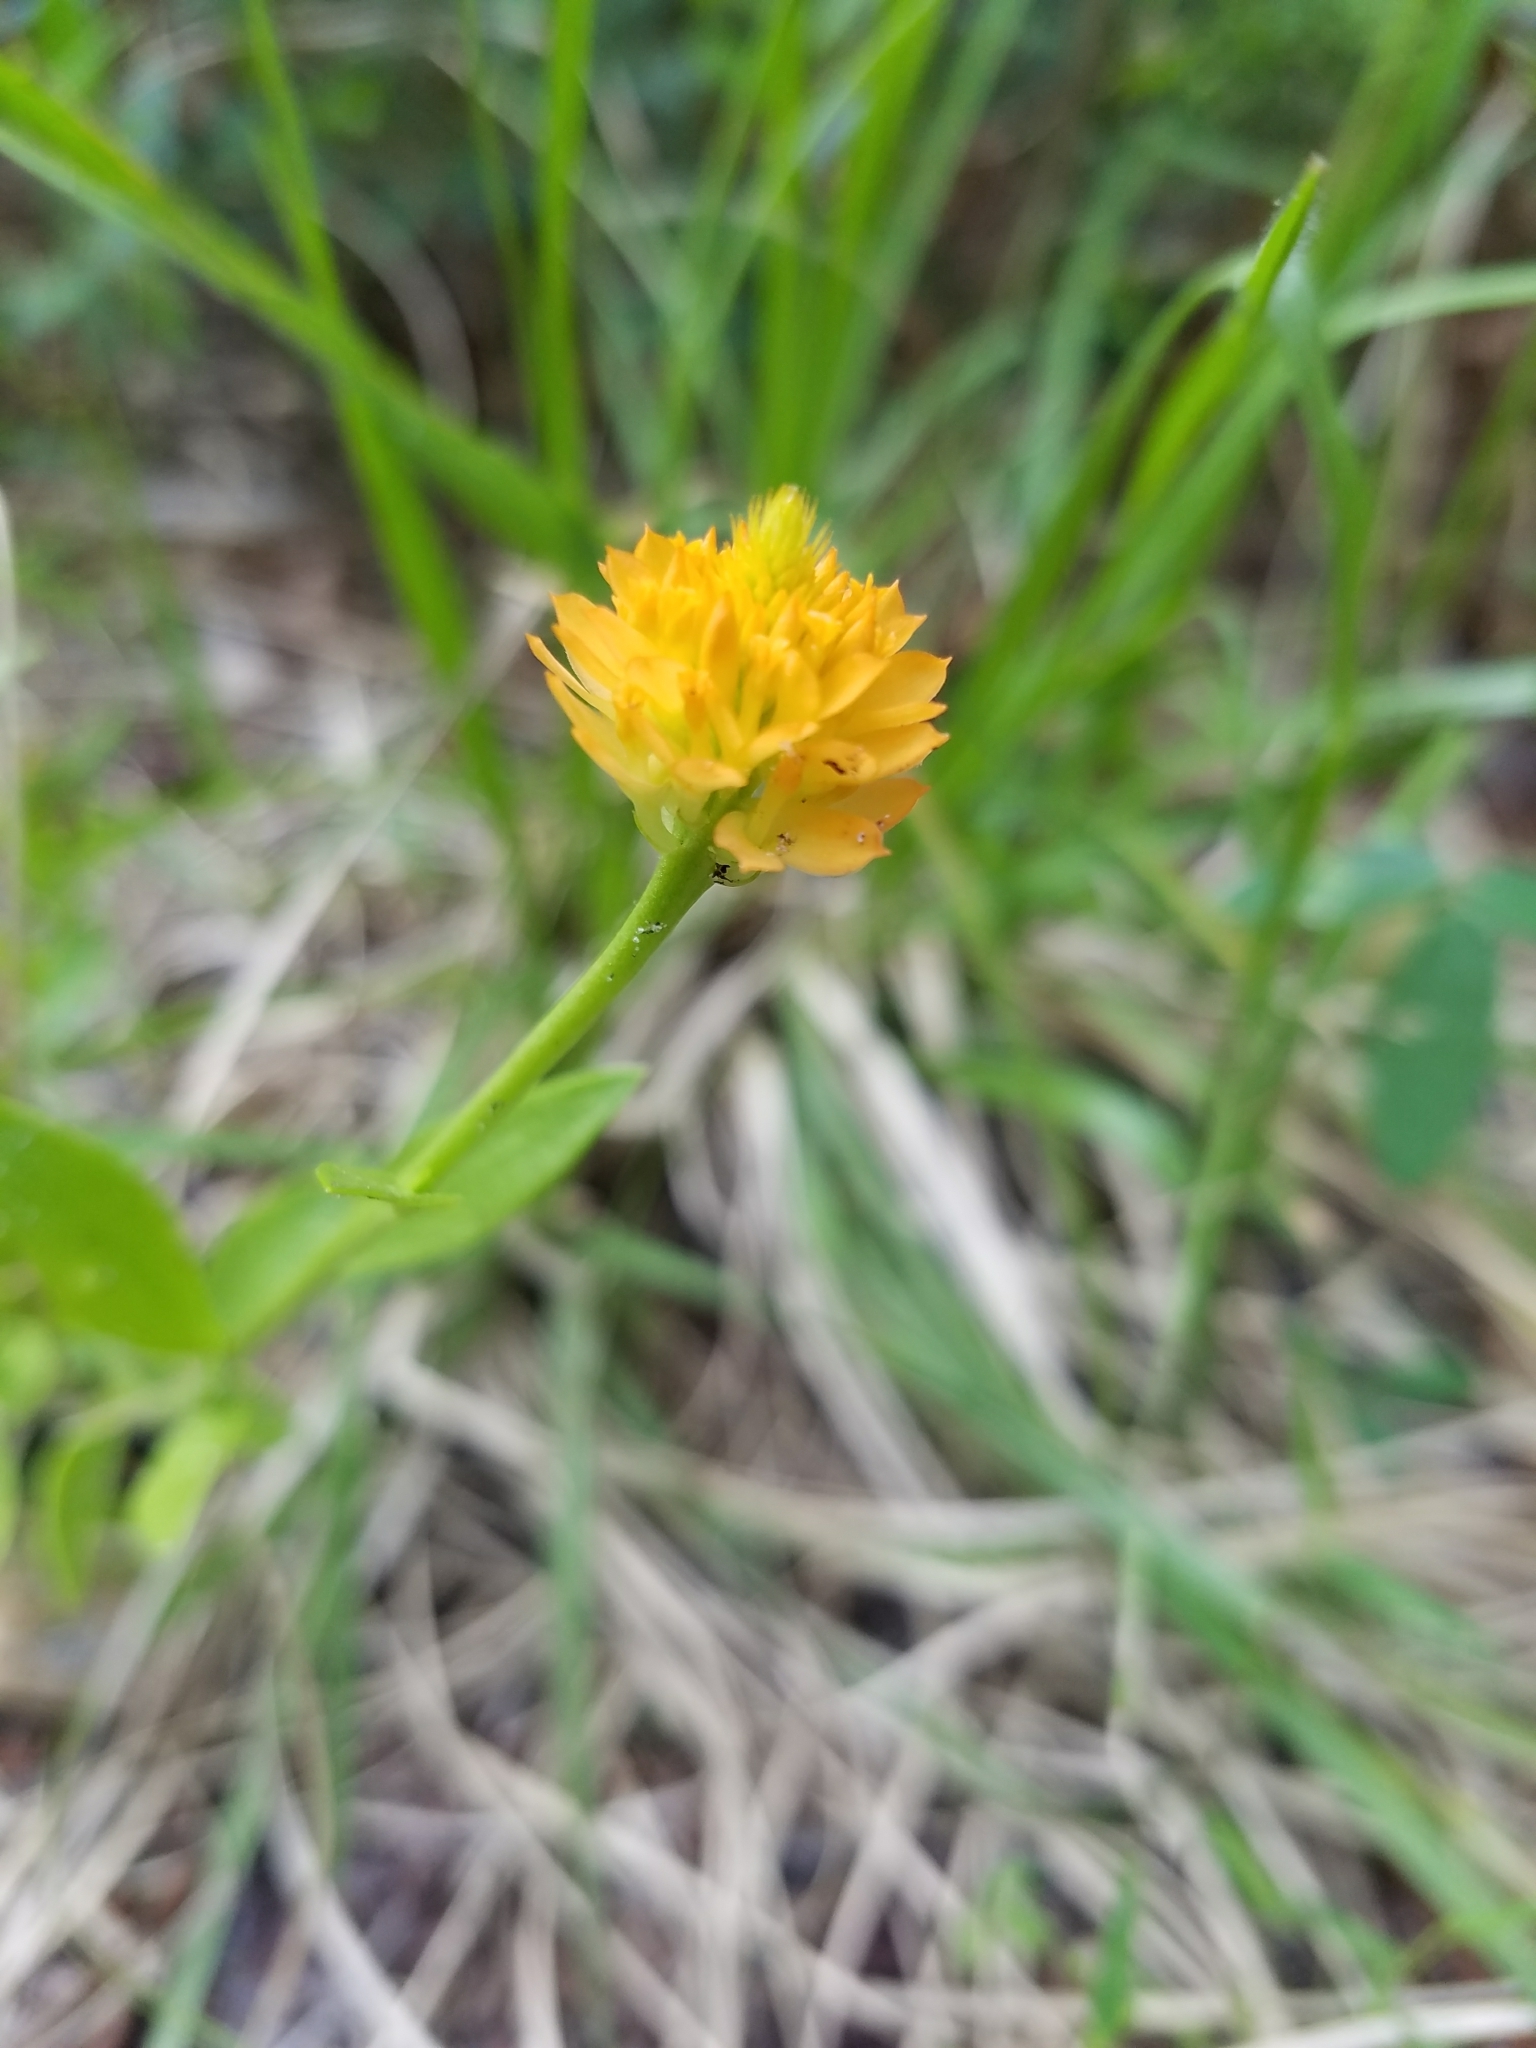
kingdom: Plantae
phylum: Tracheophyta
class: Magnoliopsida
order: Fabales
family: Polygalaceae
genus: Polygala
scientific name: Polygala lutea
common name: Orange milkwort
